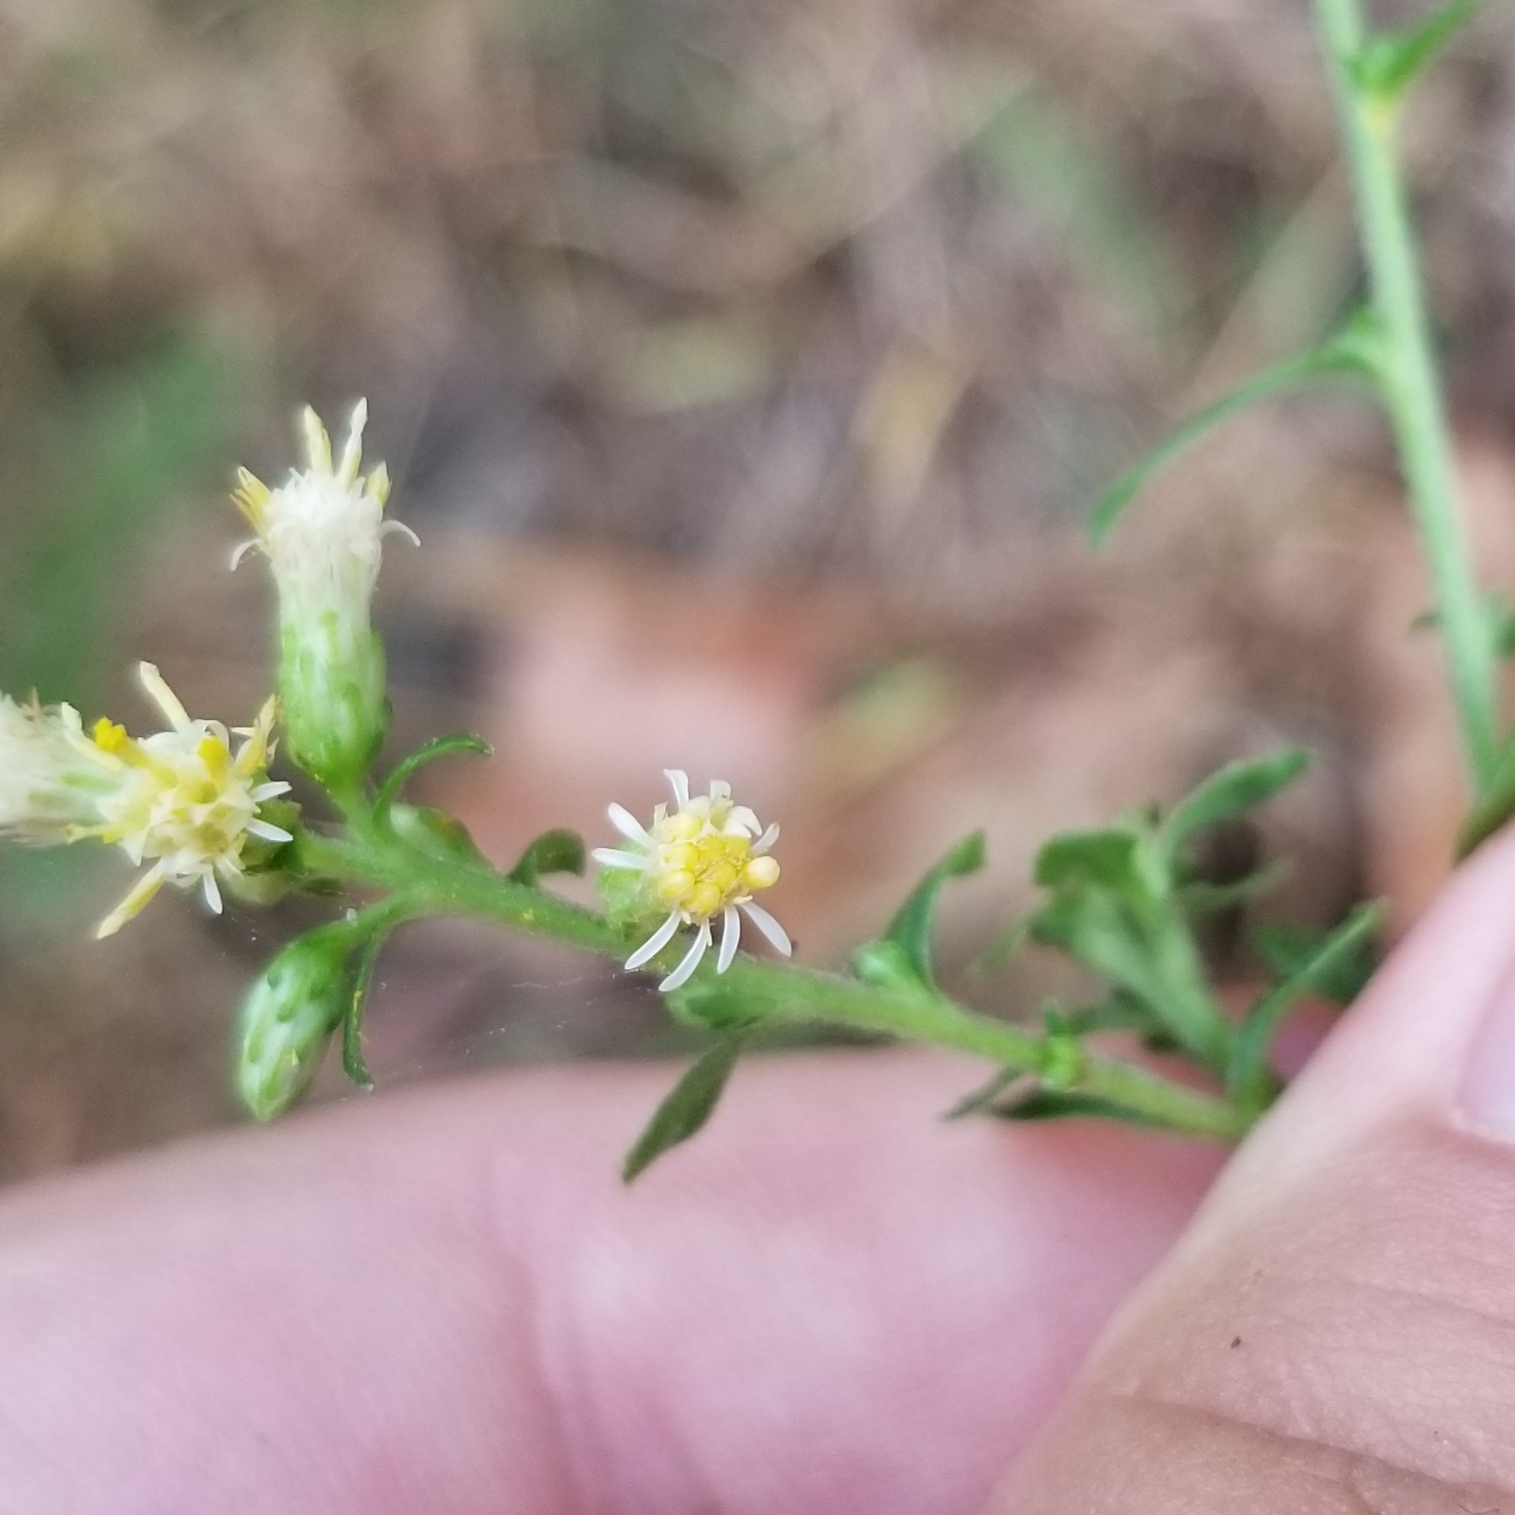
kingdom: Plantae
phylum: Tracheophyta
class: Magnoliopsida
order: Asterales
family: Asteraceae
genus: Solidago
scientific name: Solidago bicolor
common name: Silverrod
